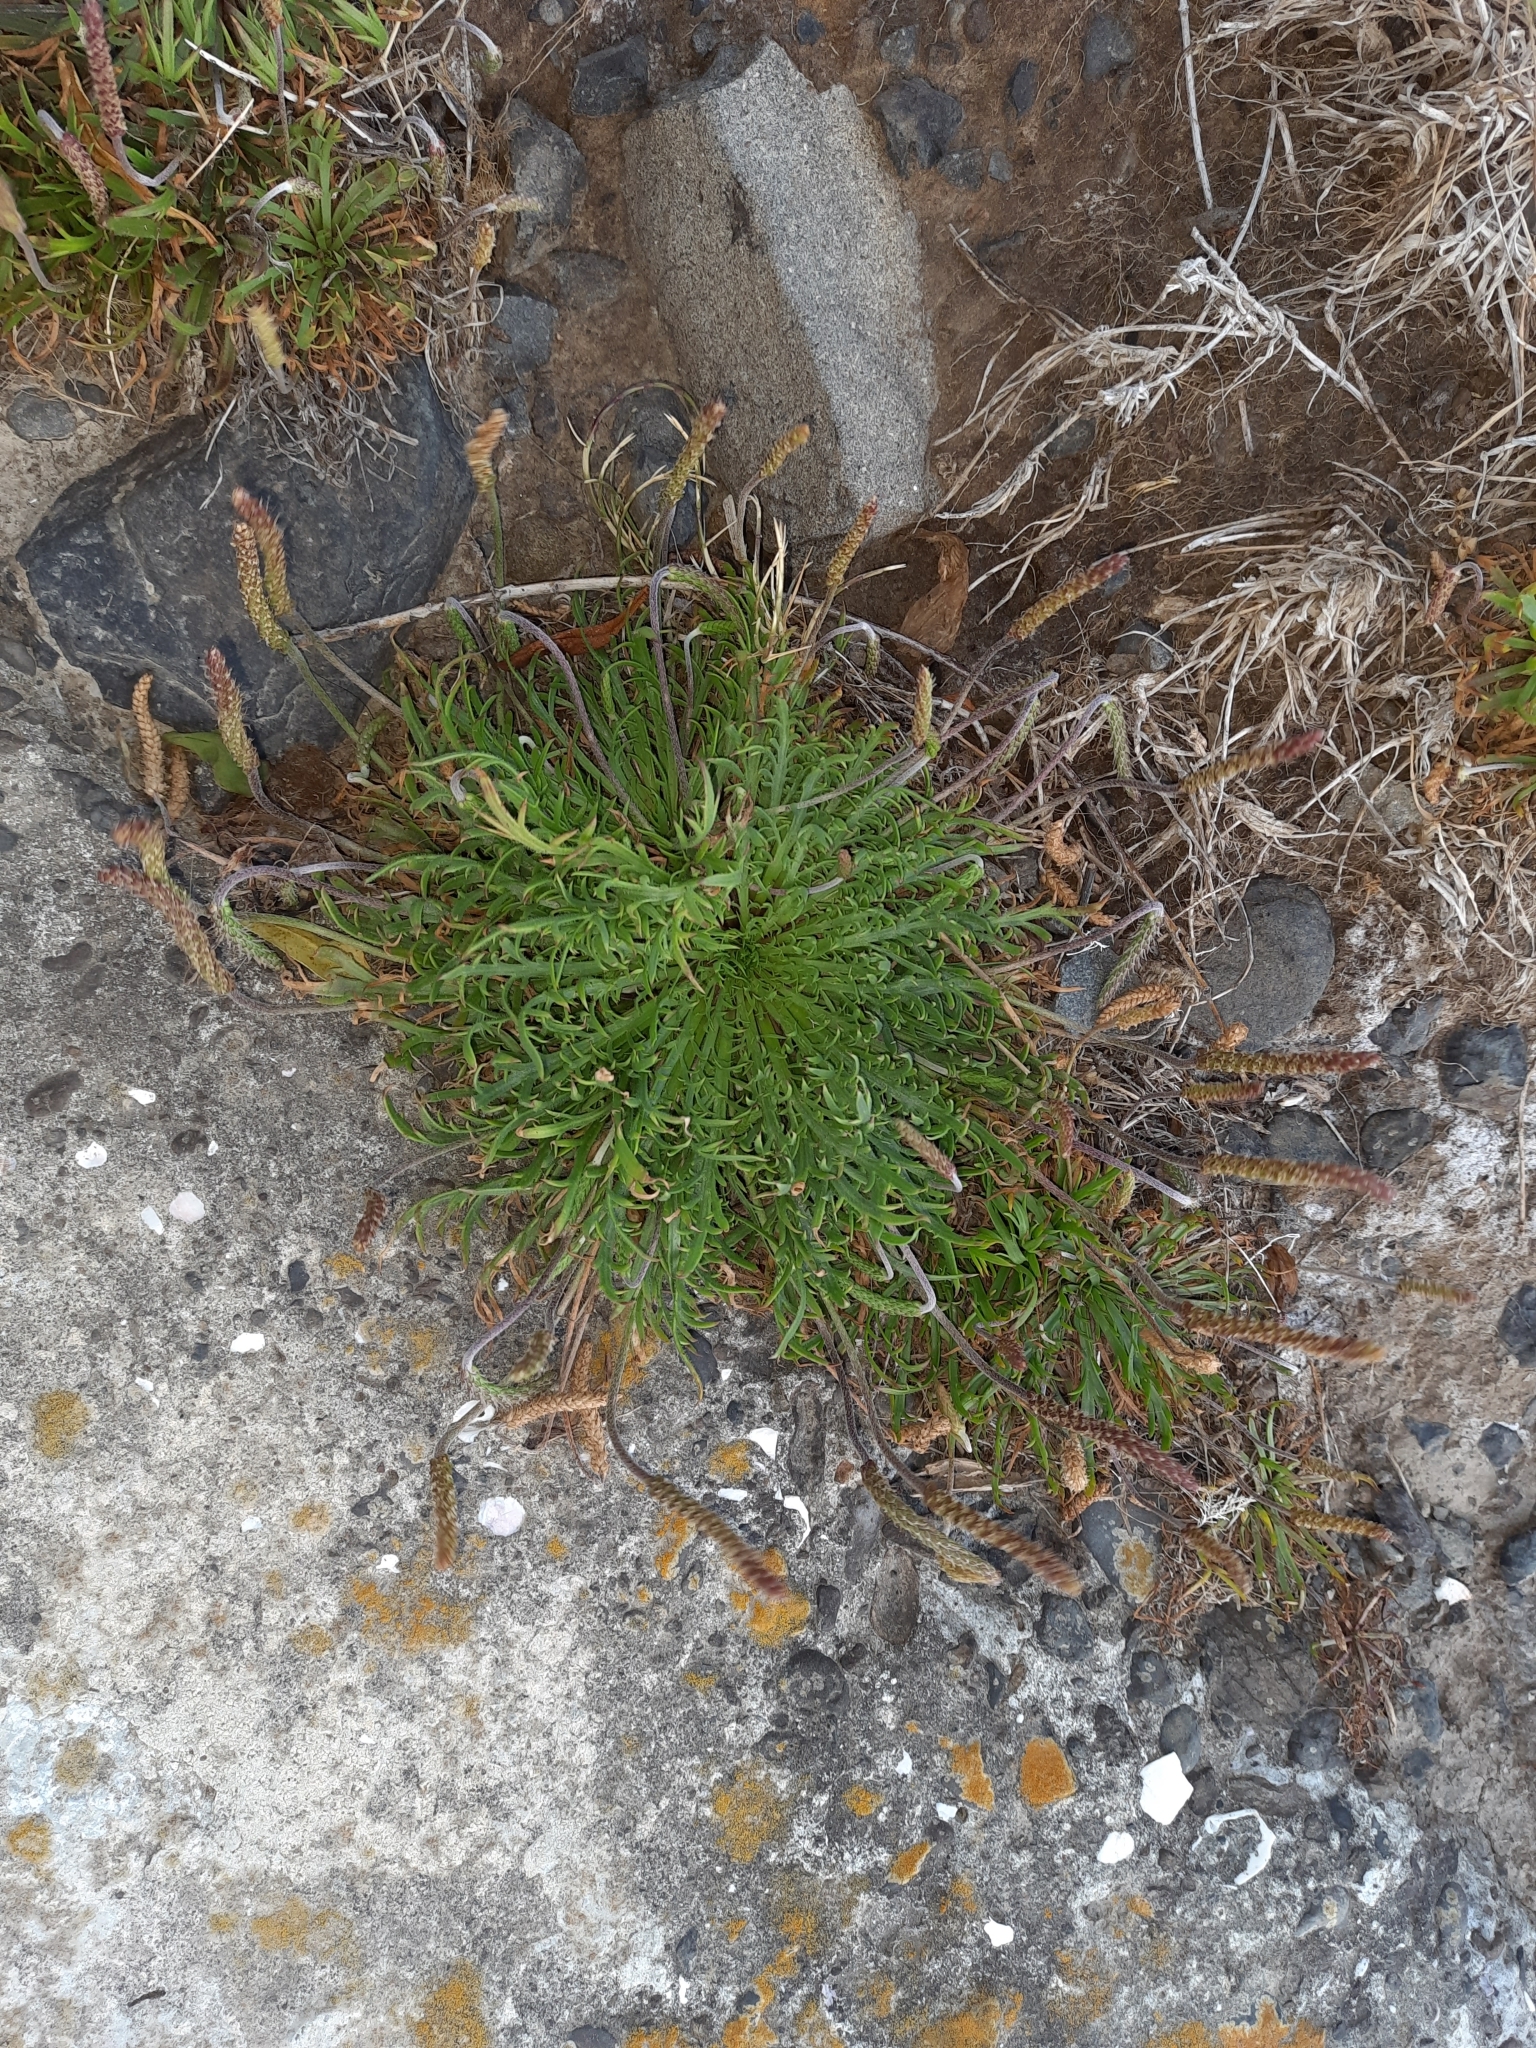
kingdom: Plantae
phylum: Tracheophyta
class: Magnoliopsida
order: Lamiales
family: Plantaginaceae
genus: Plantago
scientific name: Plantago coronopus
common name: Buck's-horn plantain
